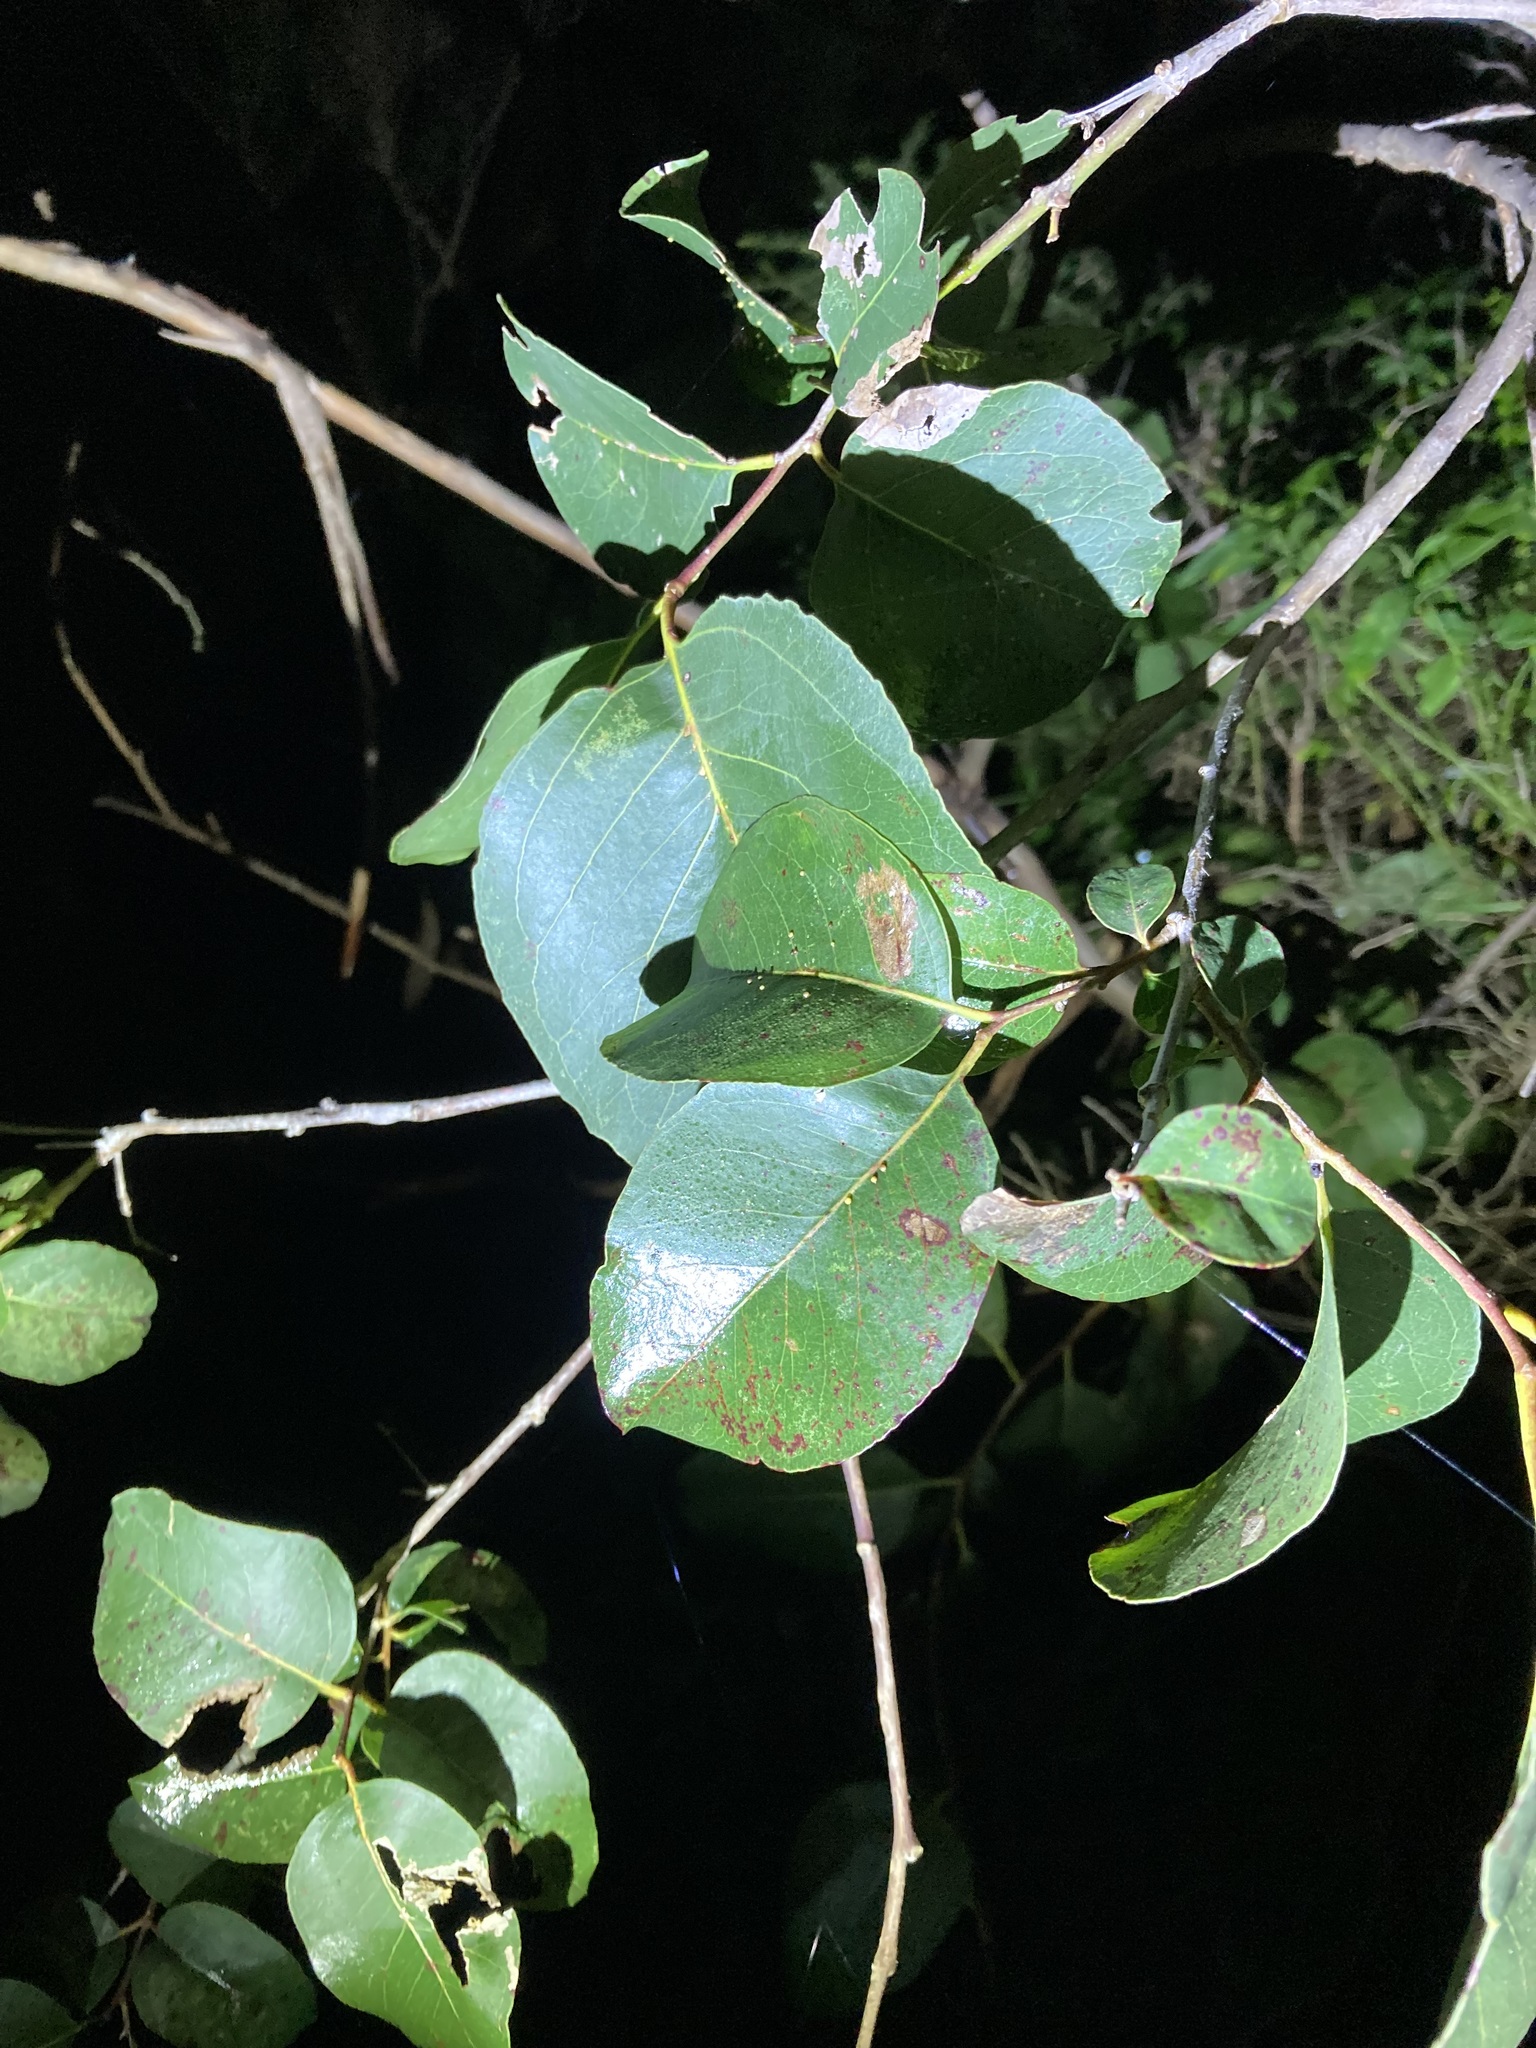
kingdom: Plantae
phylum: Tracheophyta
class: Magnoliopsida
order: Myrtales
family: Myrtaceae
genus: Eucalyptus
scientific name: Eucalyptus amplifolia
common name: Cabbage gum
